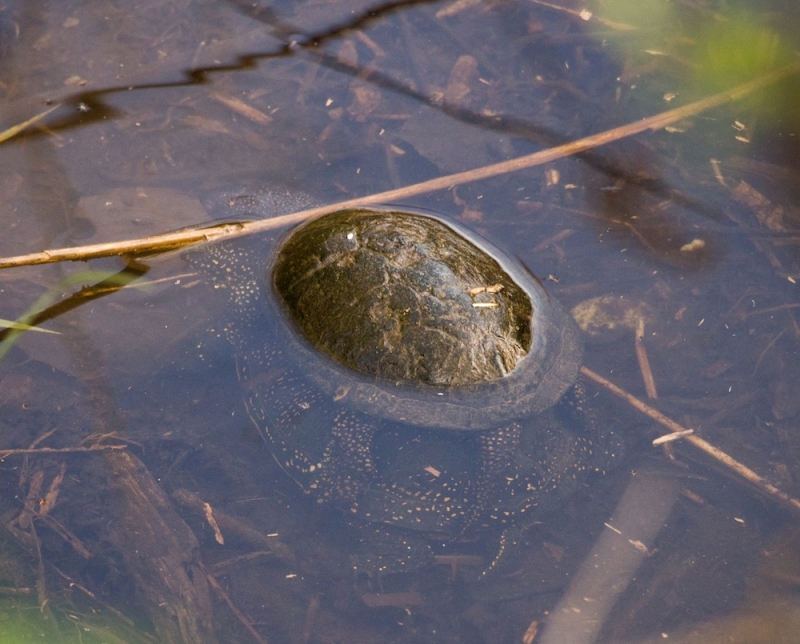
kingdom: Animalia
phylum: Chordata
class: Testudines
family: Emydidae
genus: Emys
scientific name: Emys orbicularis
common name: European pond turtle
